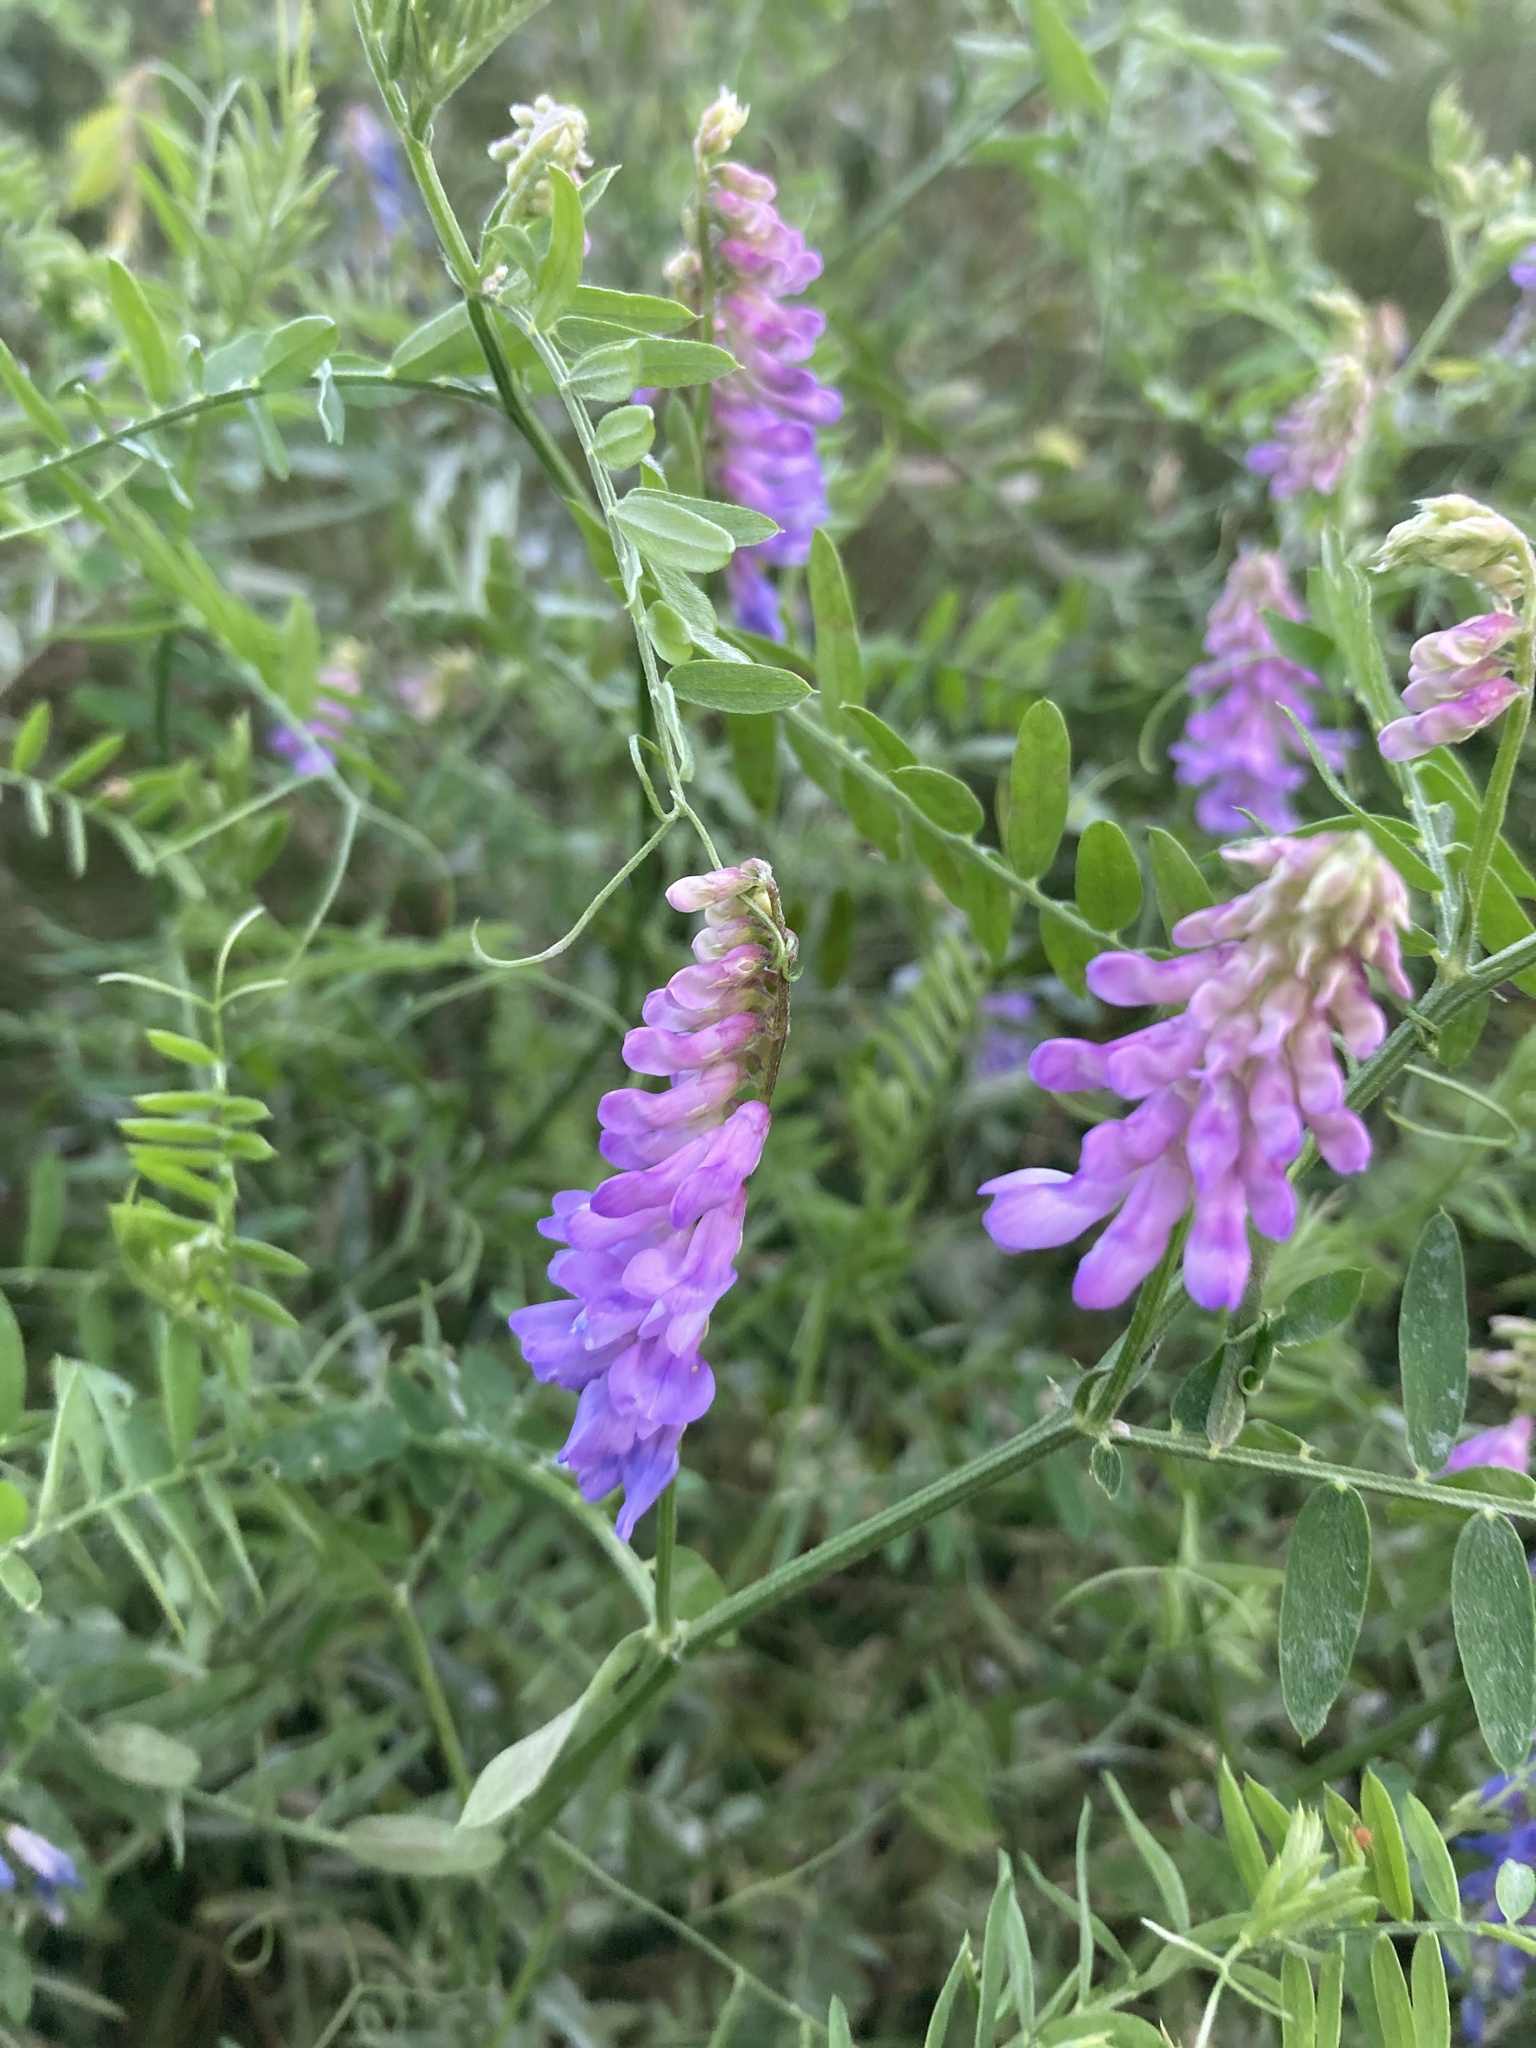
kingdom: Plantae
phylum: Tracheophyta
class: Magnoliopsida
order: Fabales
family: Fabaceae
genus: Vicia
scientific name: Vicia cracca
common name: Bird vetch
